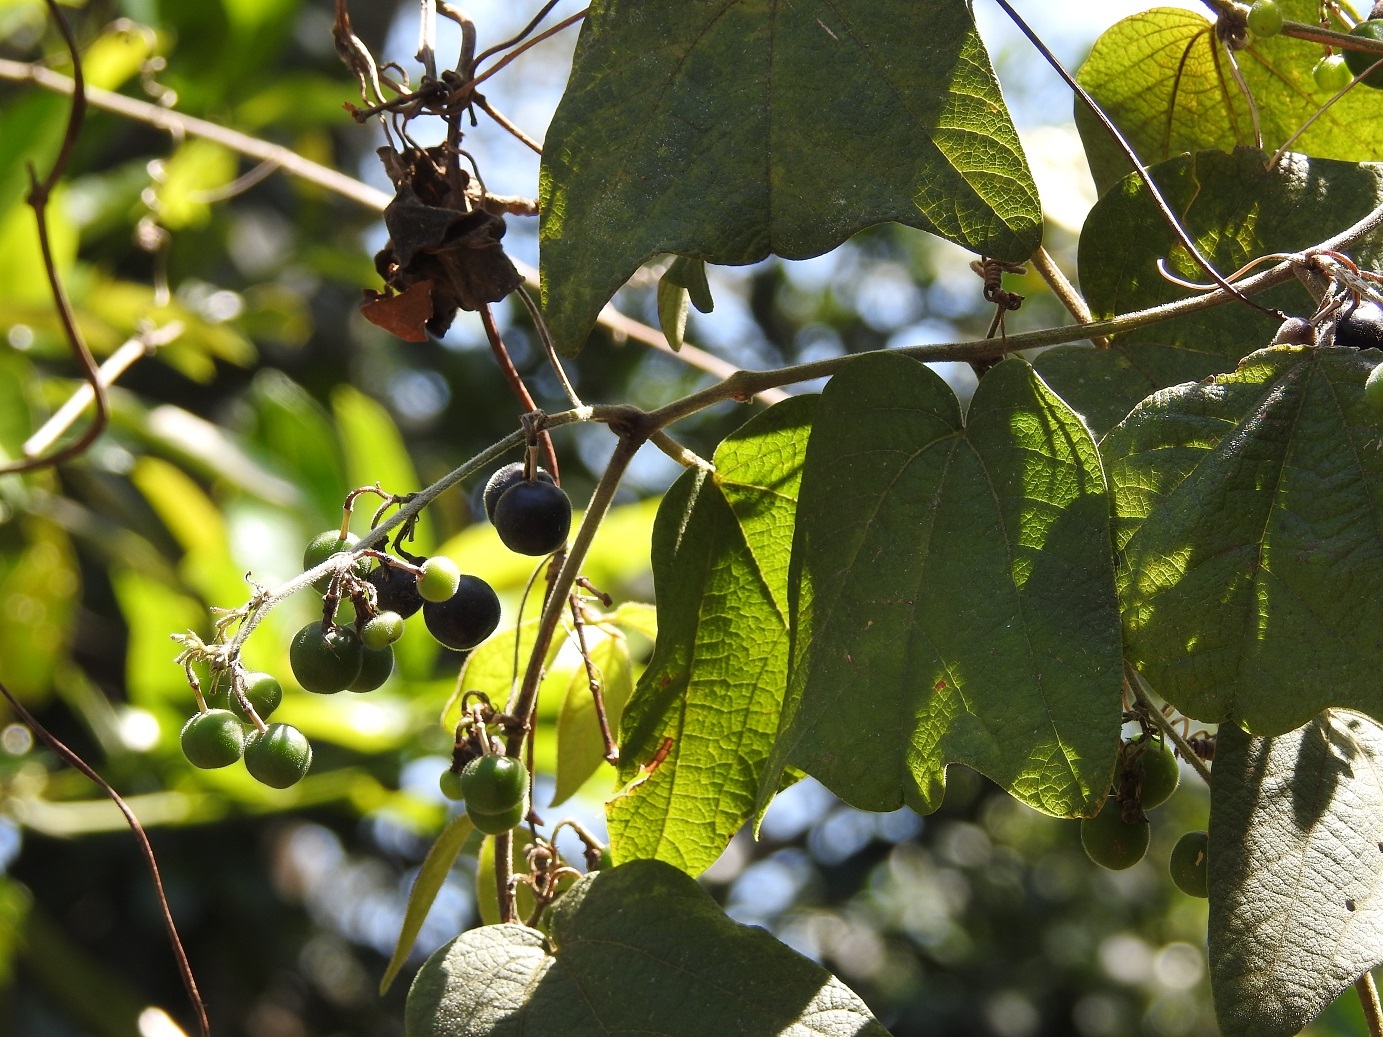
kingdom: Plantae
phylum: Tracheophyta
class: Magnoliopsida
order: Malpighiales
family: Passifloraceae
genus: Passiflora
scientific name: Passiflora sexflora
